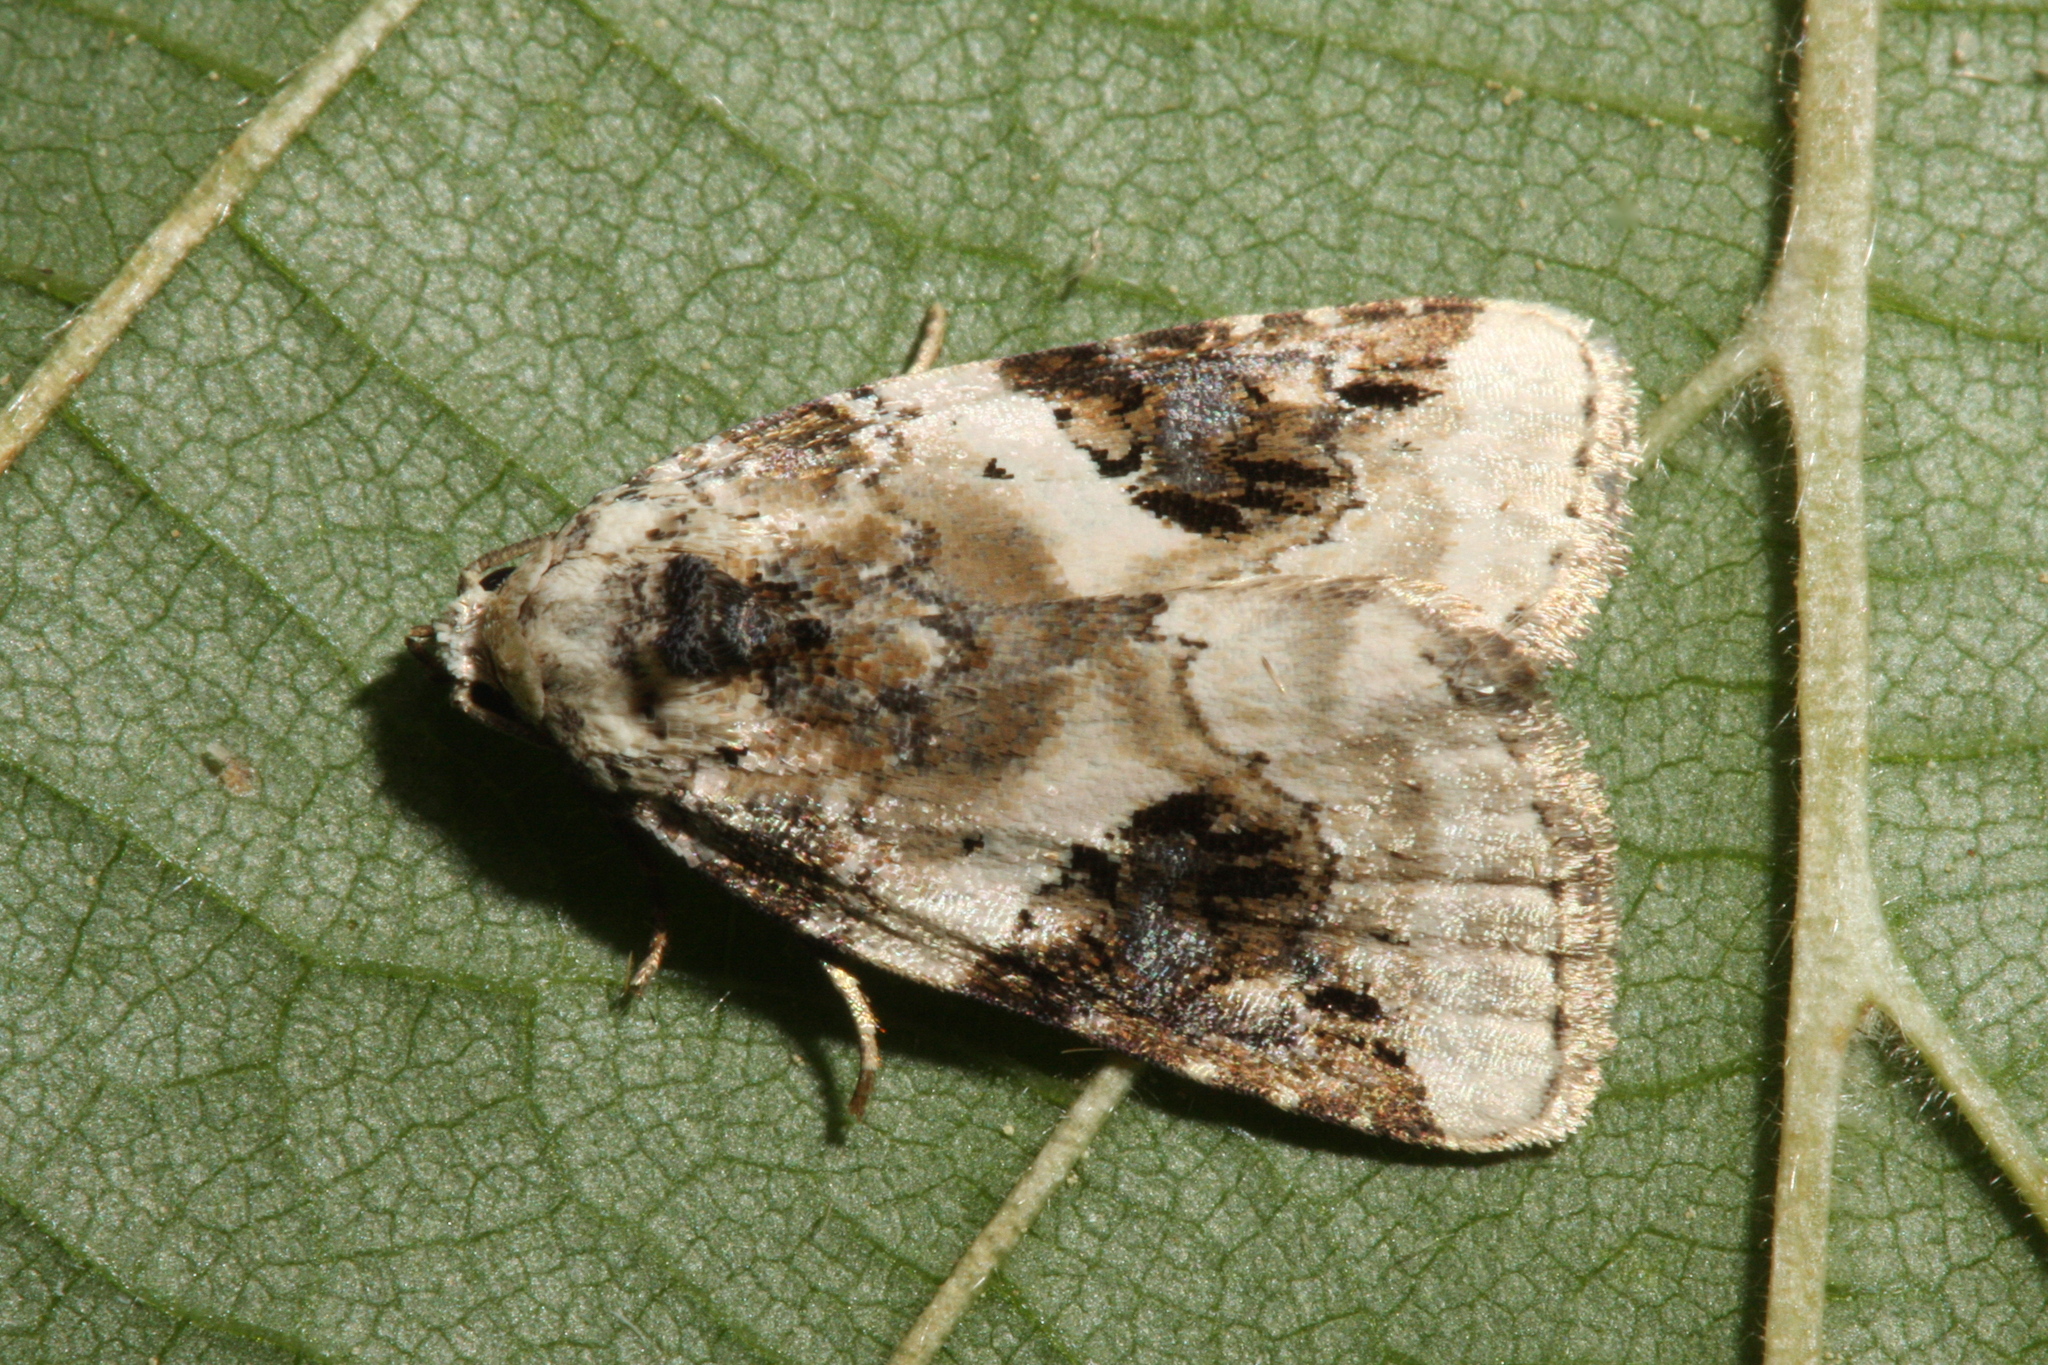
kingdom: Animalia
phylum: Arthropoda
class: Insecta
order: Lepidoptera
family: Noctuidae
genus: Pseudeustrotia
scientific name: Pseudeustrotia candidula
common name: Shining marbled
